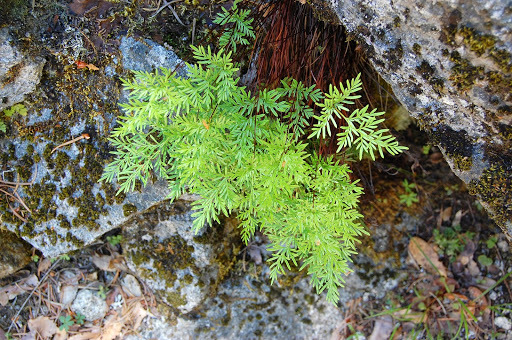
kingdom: Plantae
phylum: Tracheophyta
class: Polypodiopsida
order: Polypodiales
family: Pteridaceae
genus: Aspidotis
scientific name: Aspidotis densa
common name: Indian's dream
